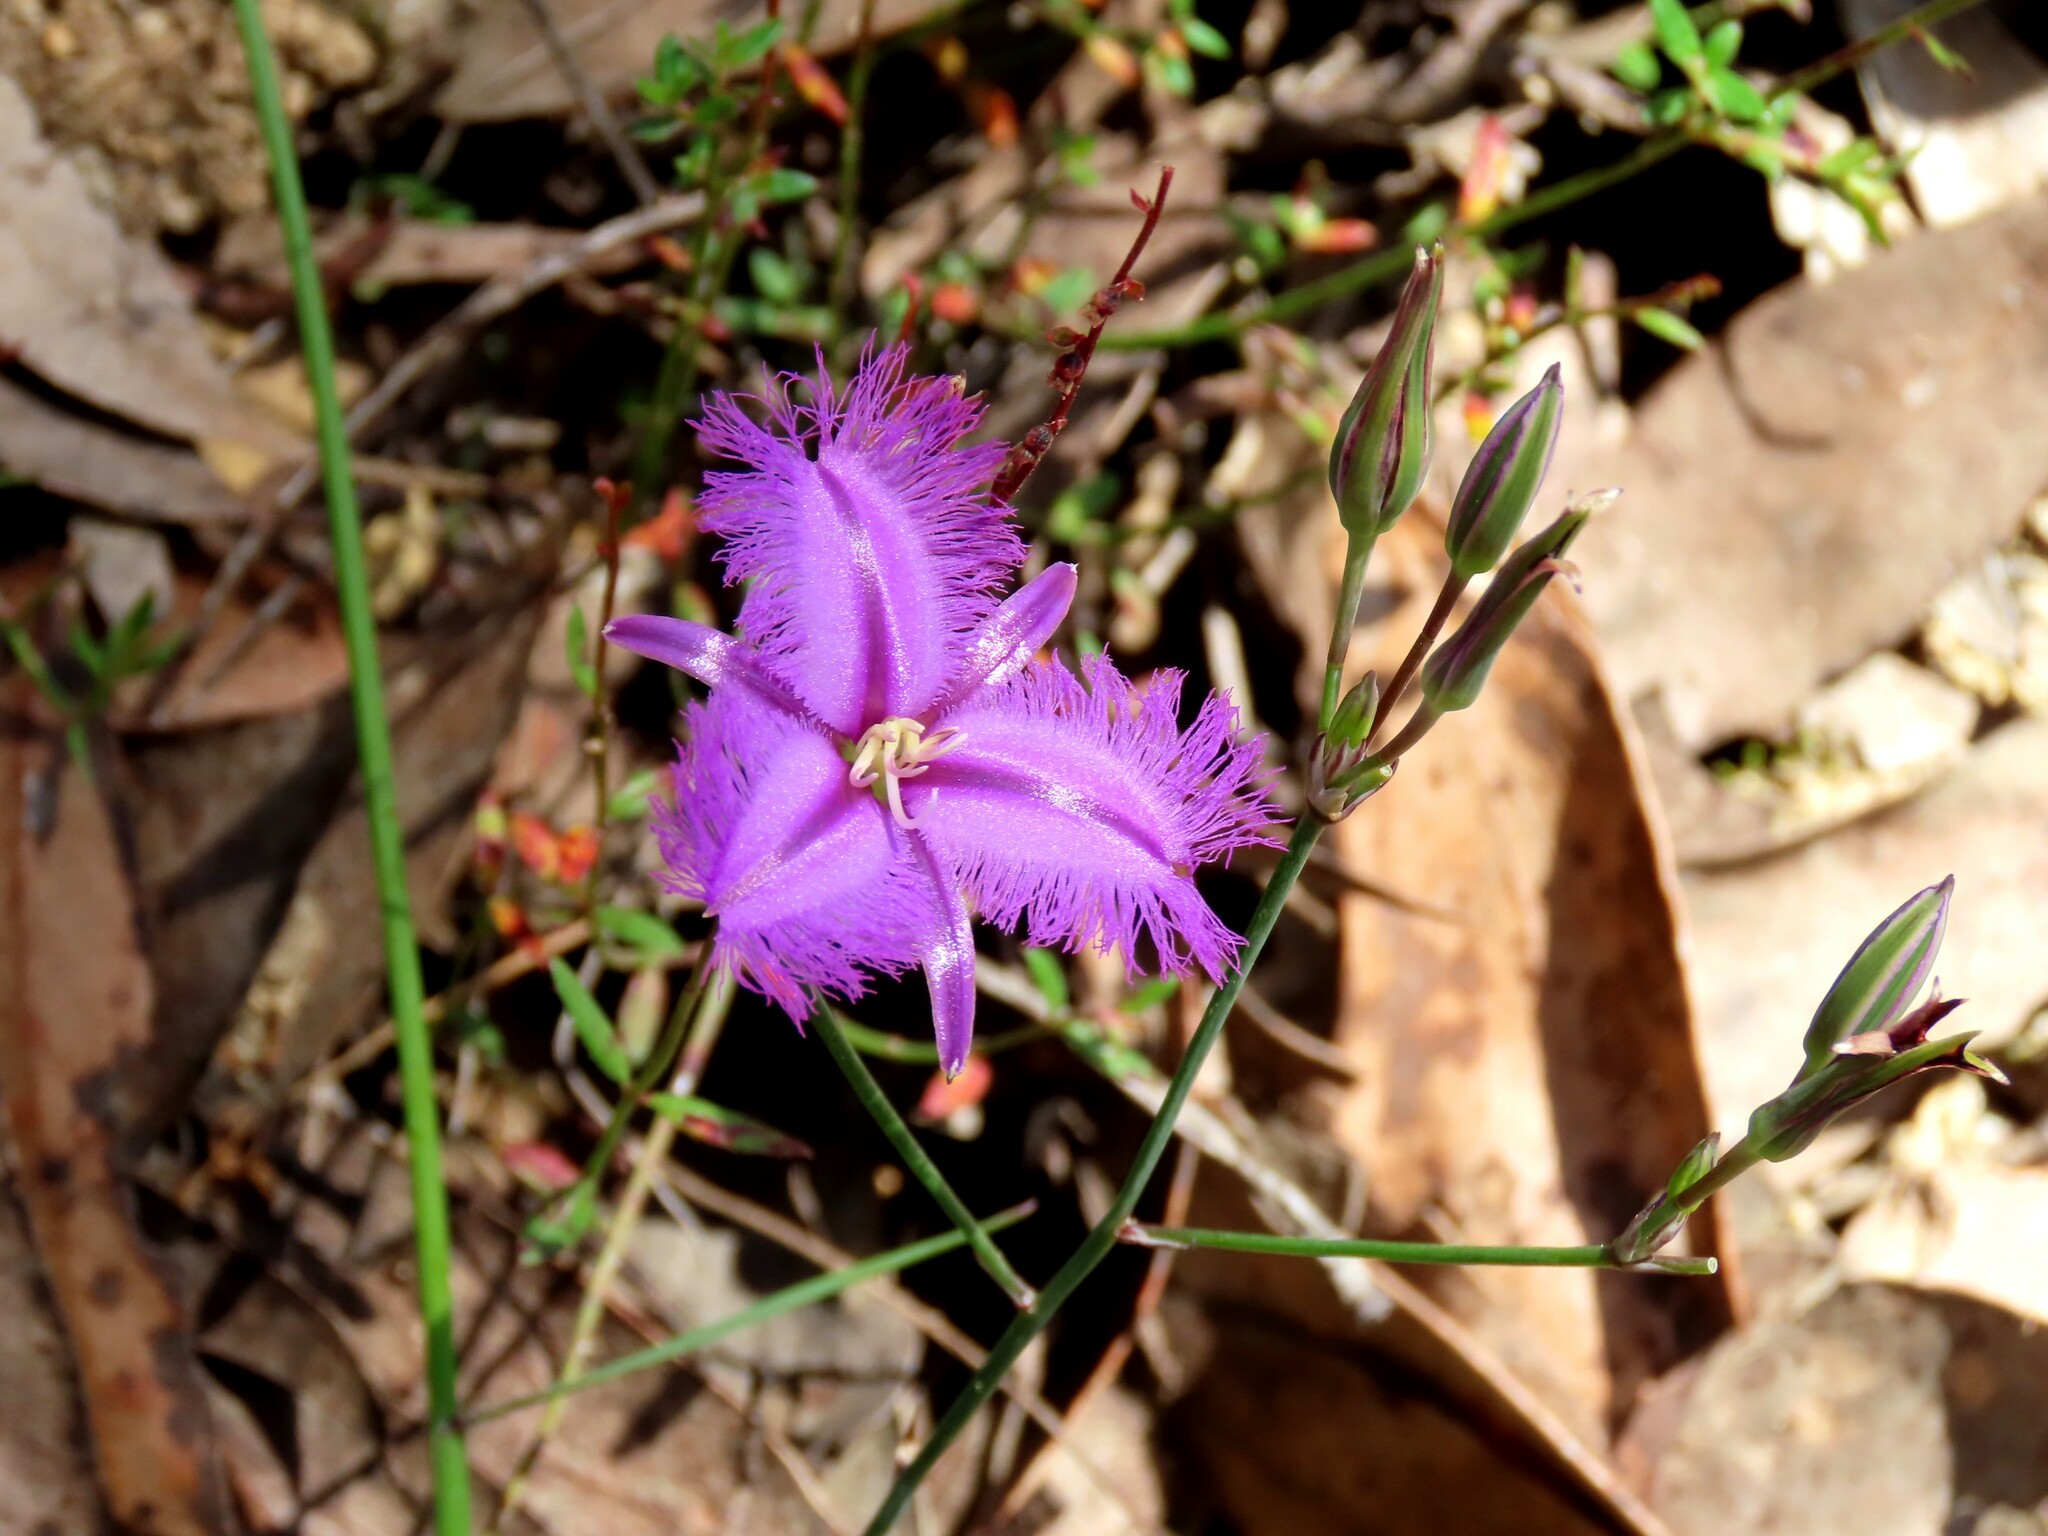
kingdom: Plantae
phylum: Tracheophyta
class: Liliopsida
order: Asparagales
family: Asparagaceae
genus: Thysanotus
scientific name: Thysanotus tuberosus
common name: Common fringed-lily
